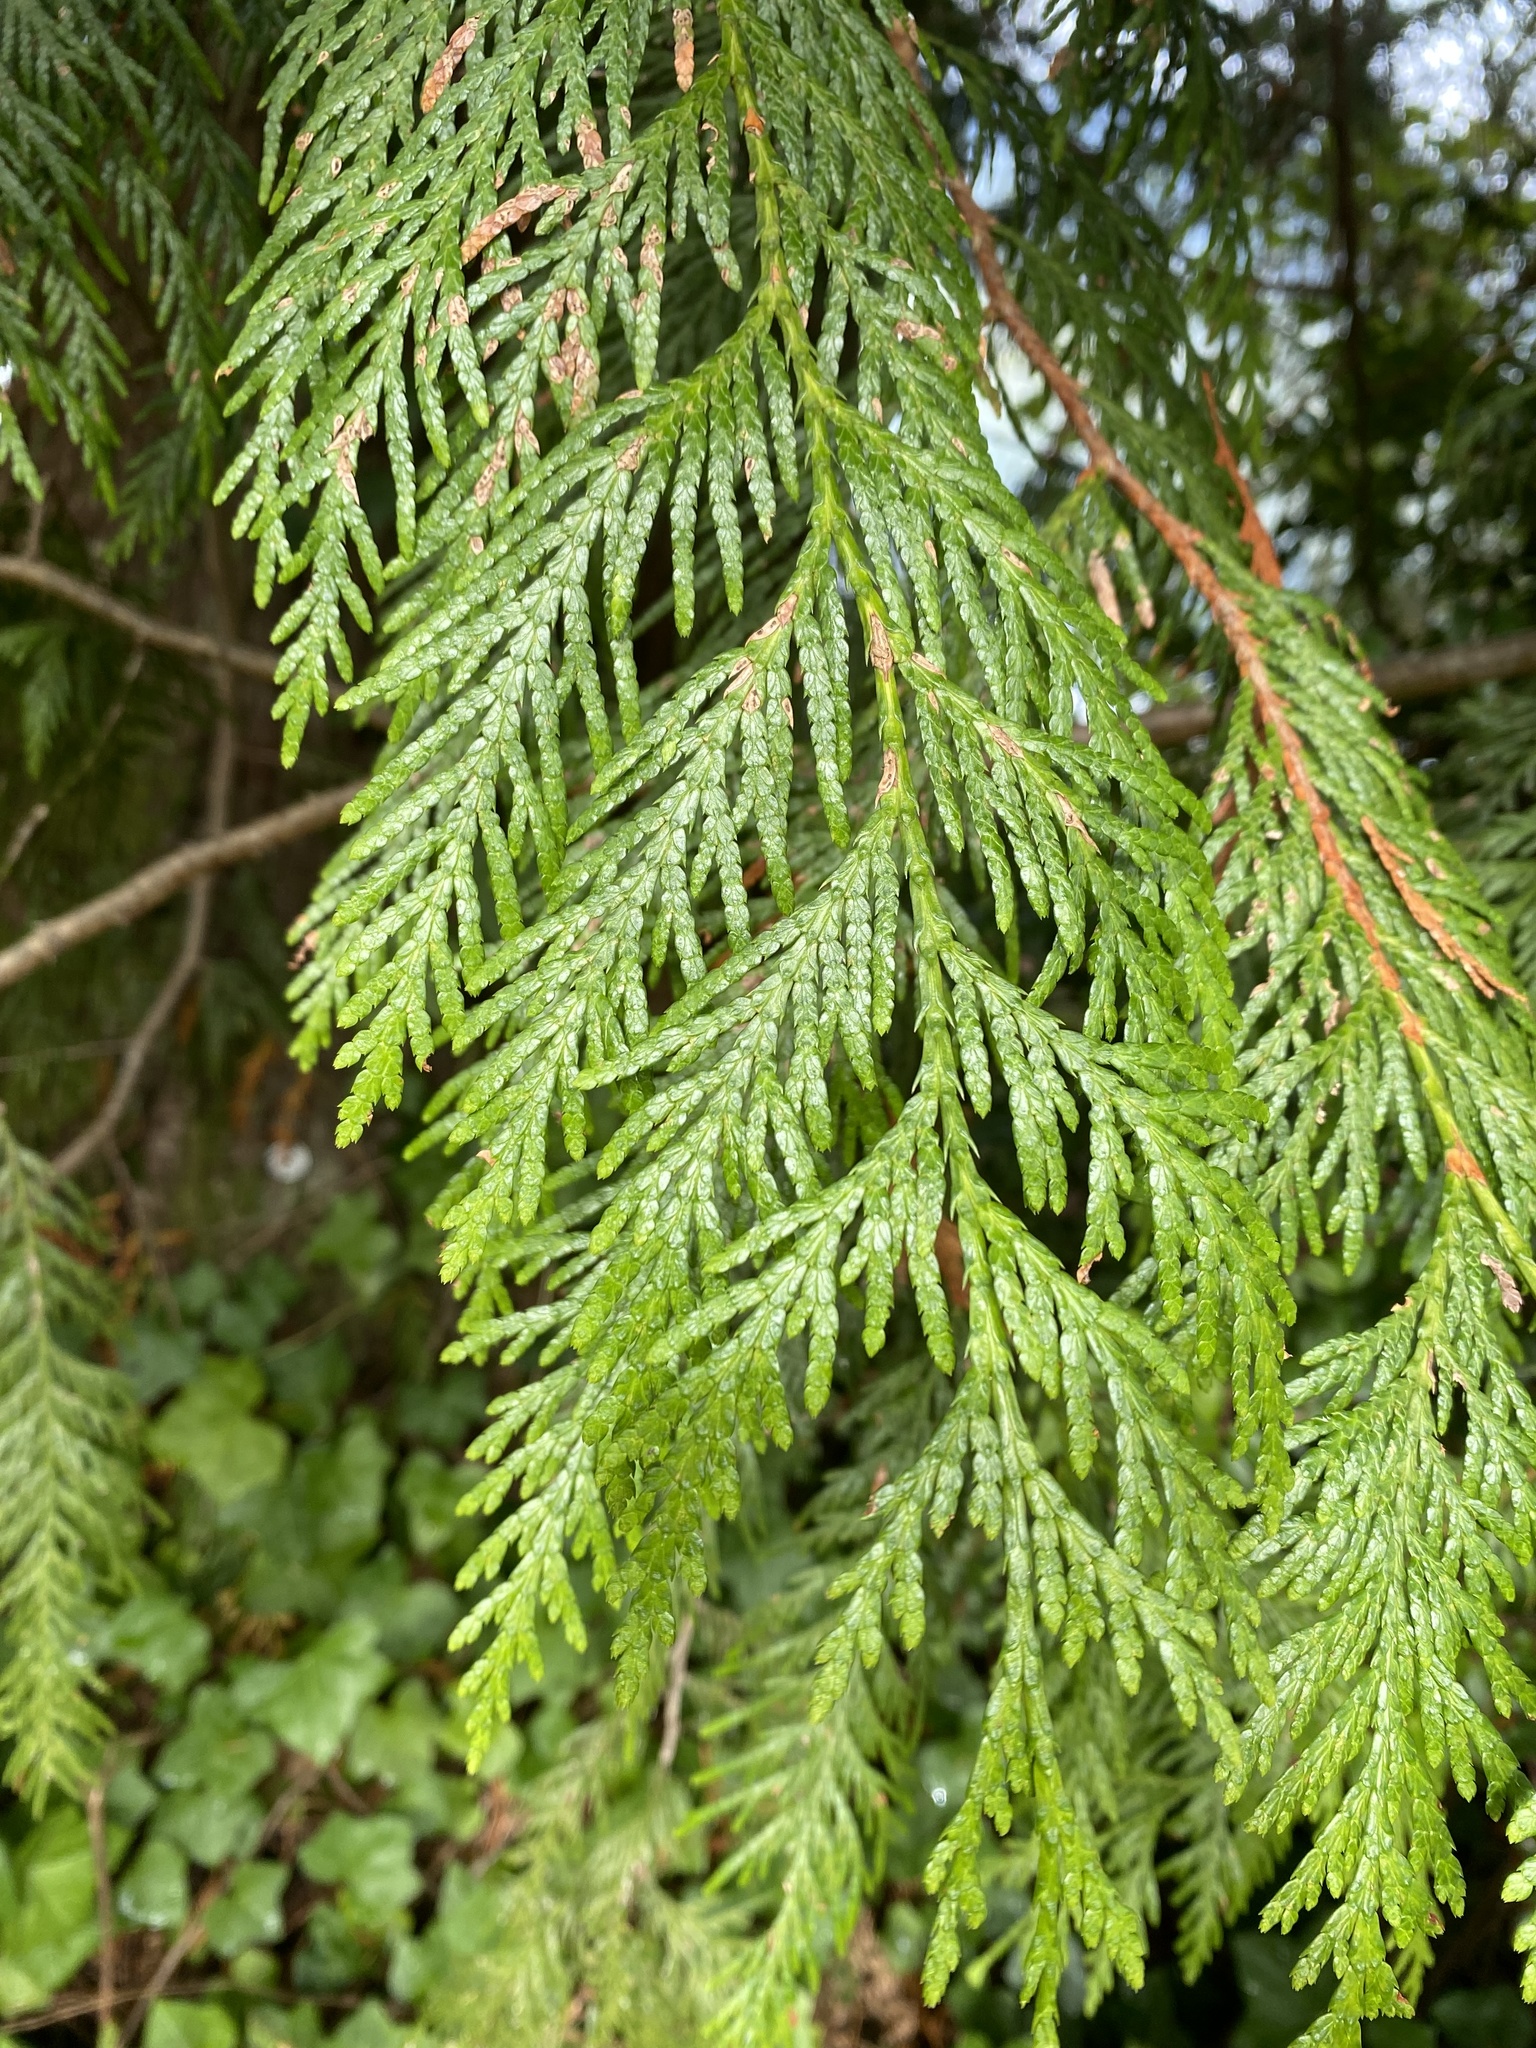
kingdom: Plantae
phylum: Tracheophyta
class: Pinopsida
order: Pinales
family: Cupressaceae
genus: Thuja
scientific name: Thuja plicata
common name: Western red-cedar
